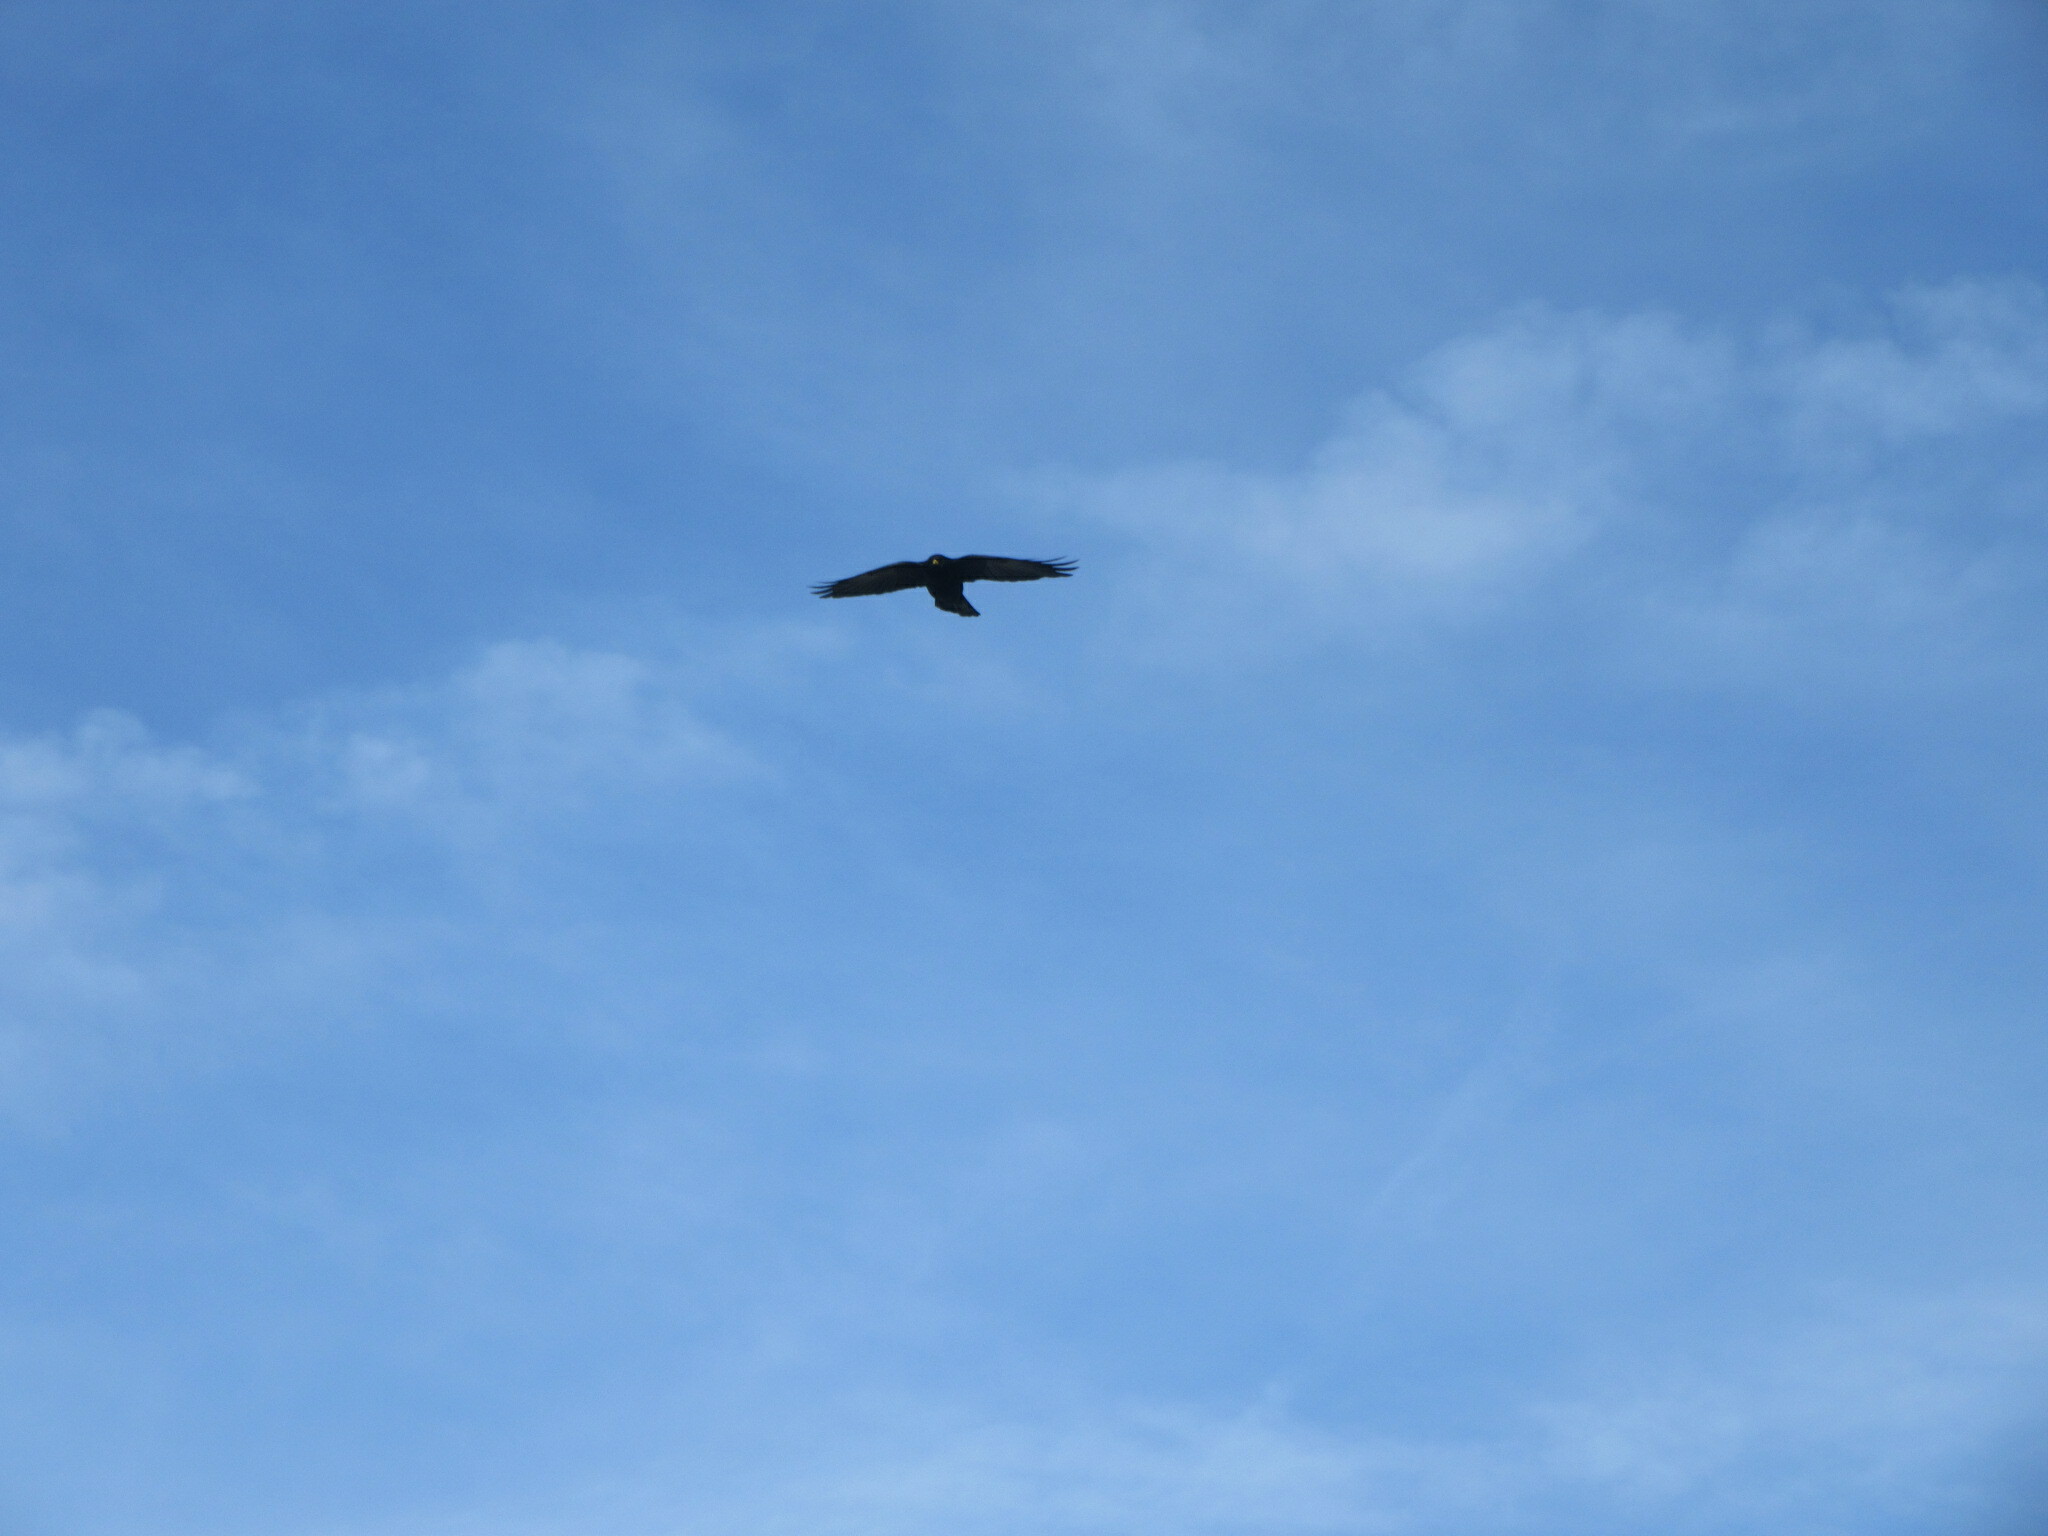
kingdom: Animalia
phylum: Chordata
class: Aves
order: Passeriformes
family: Corvidae
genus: Pyrrhocorax
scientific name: Pyrrhocorax graculus
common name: Alpine chough
